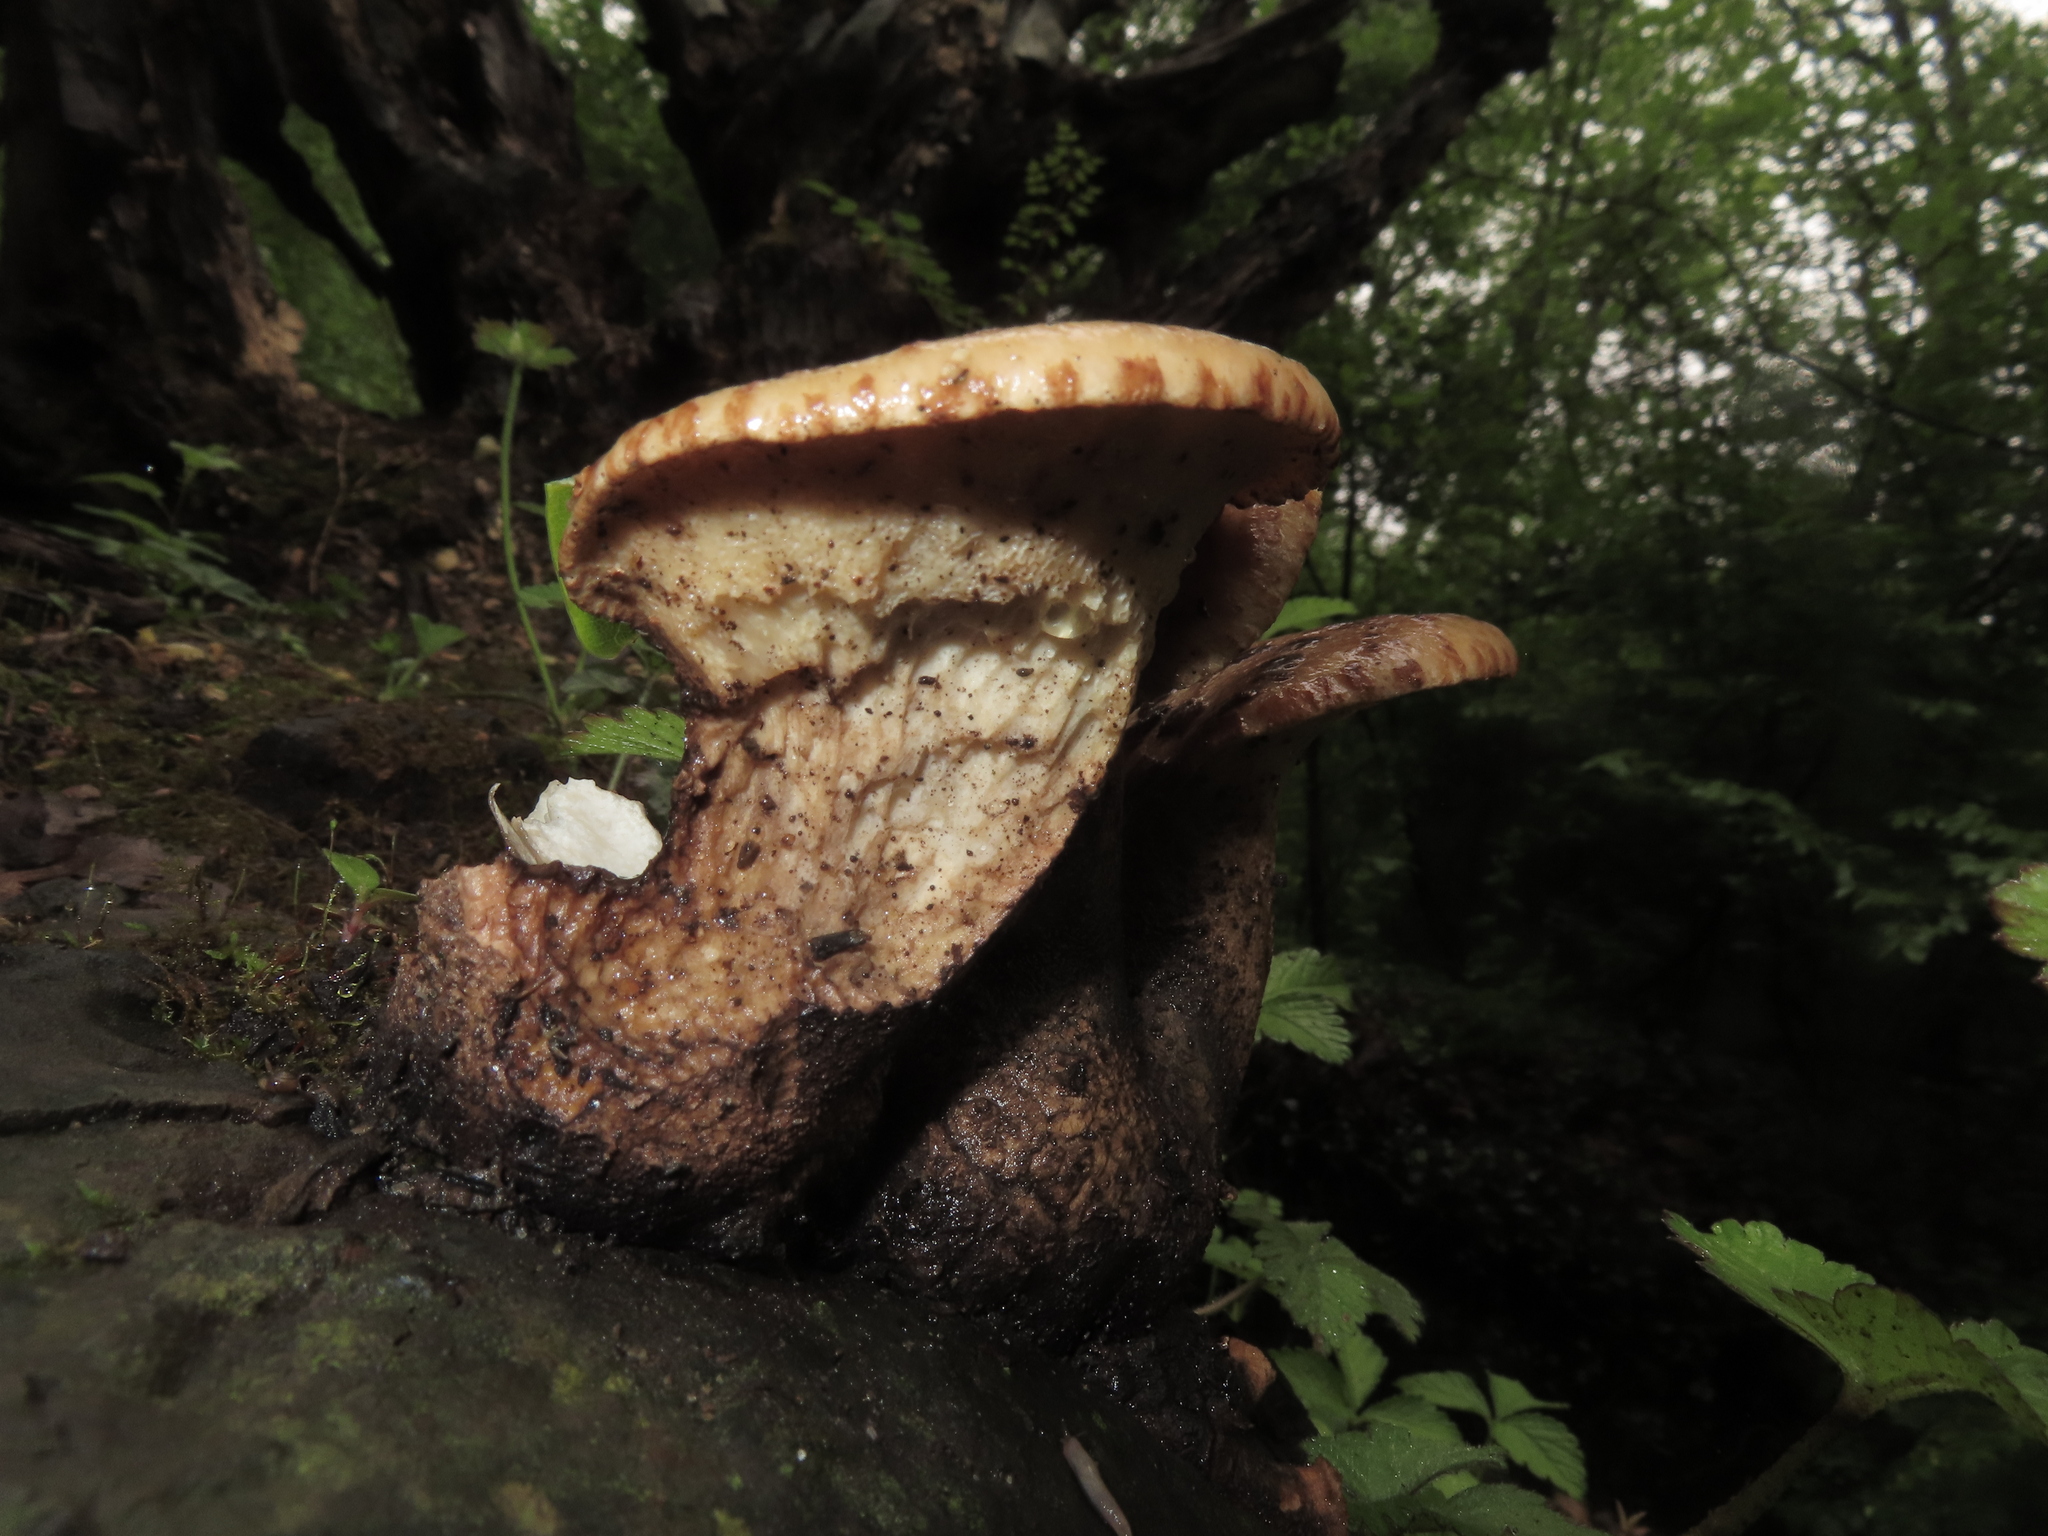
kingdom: Fungi
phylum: Basidiomycota
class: Agaricomycetes
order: Polyporales
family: Polyporaceae
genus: Cerioporus
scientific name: Cerioporus squamosus
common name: Dryad's saddle
